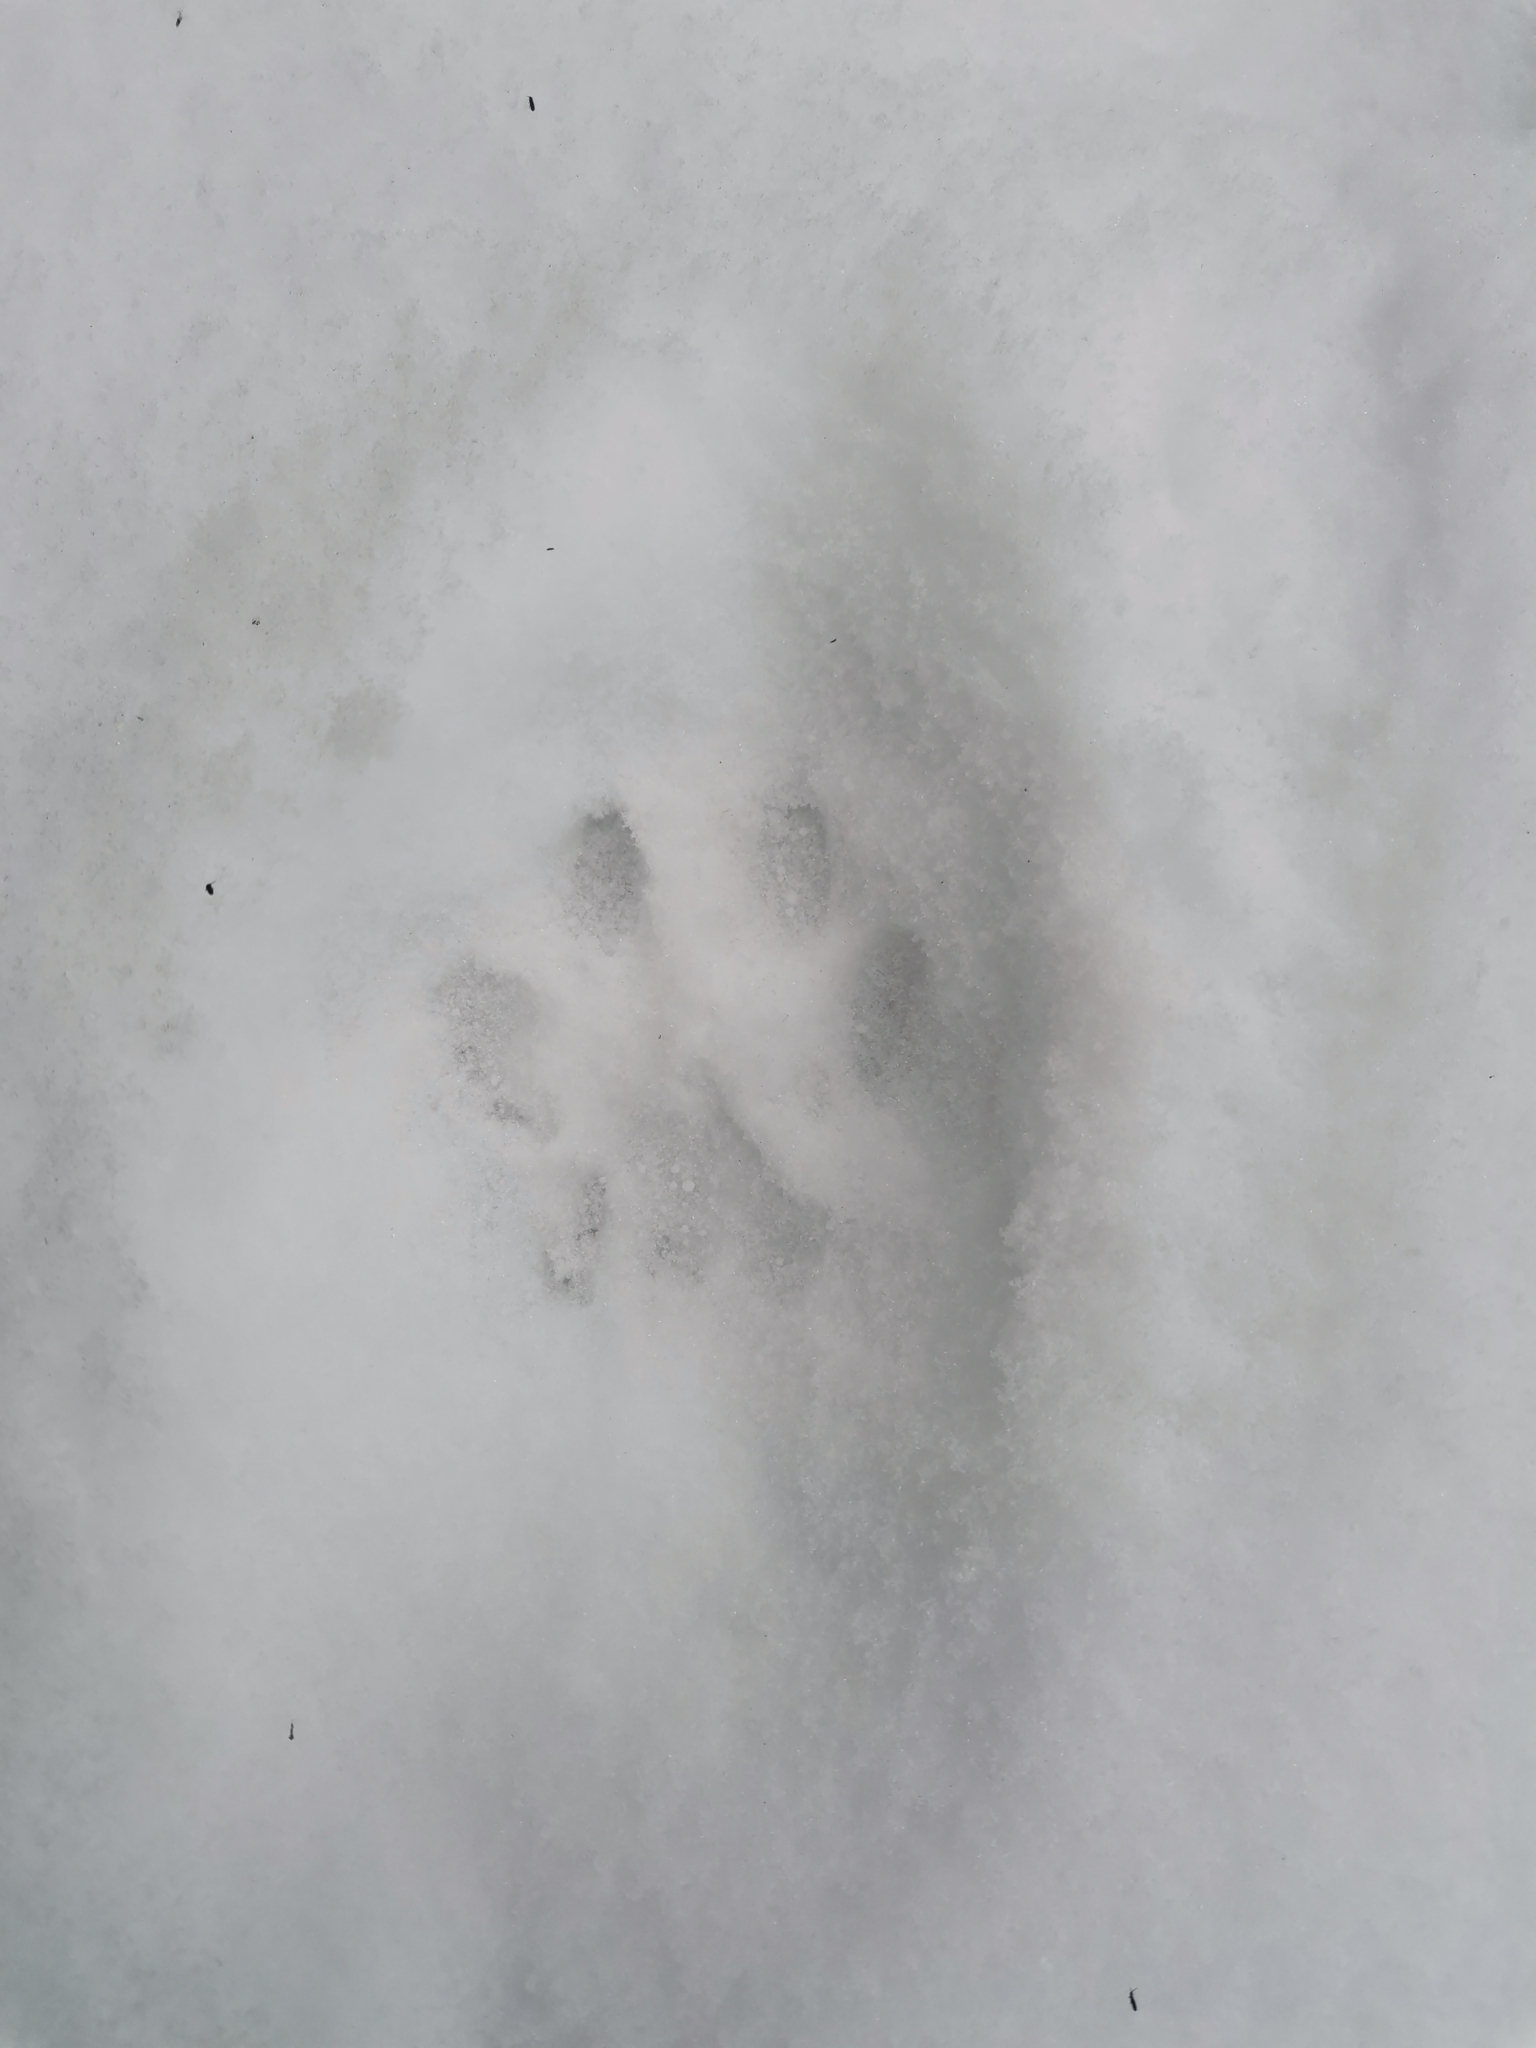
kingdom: Animalia
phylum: Chordata
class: Mammalia
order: Carnivora
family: Felidae
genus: Lynx
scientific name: Lynx lynx
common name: Eurasian lynx
